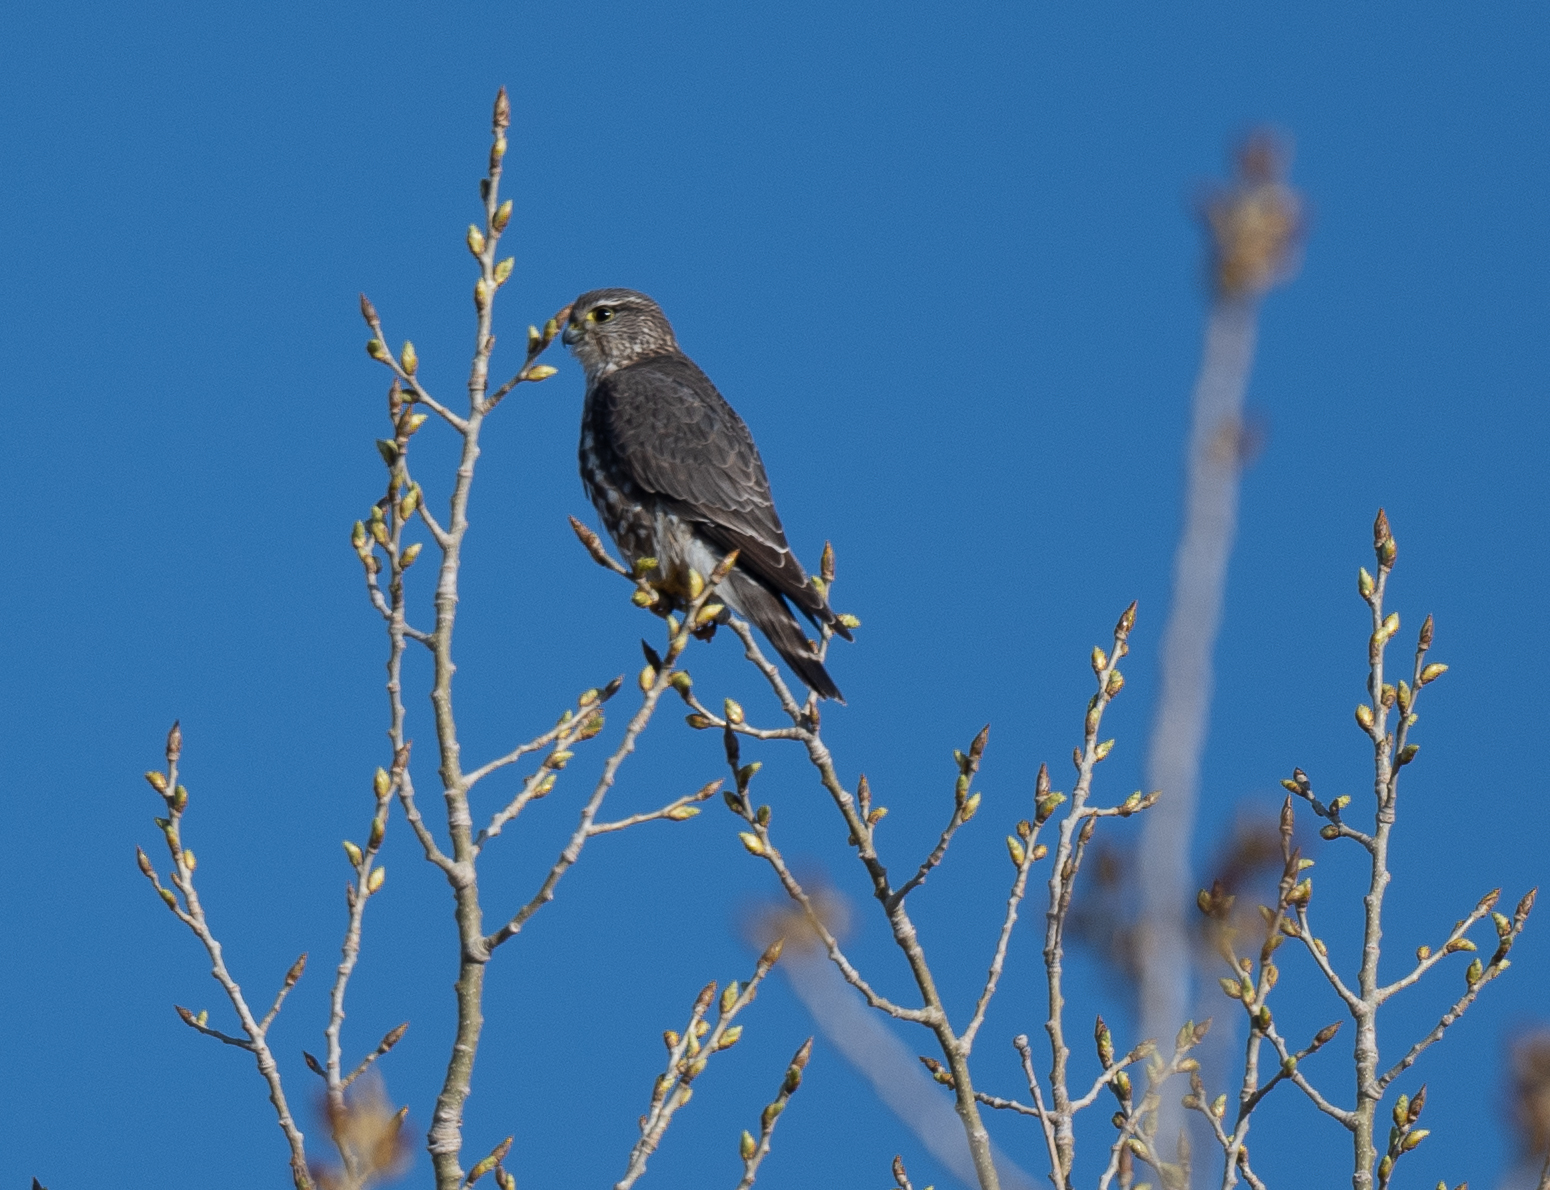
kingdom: Animalia
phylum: Chordata
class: Aves
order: Falconiformes
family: Falconidae
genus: Falco
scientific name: Falco columbarius
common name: Merlin
